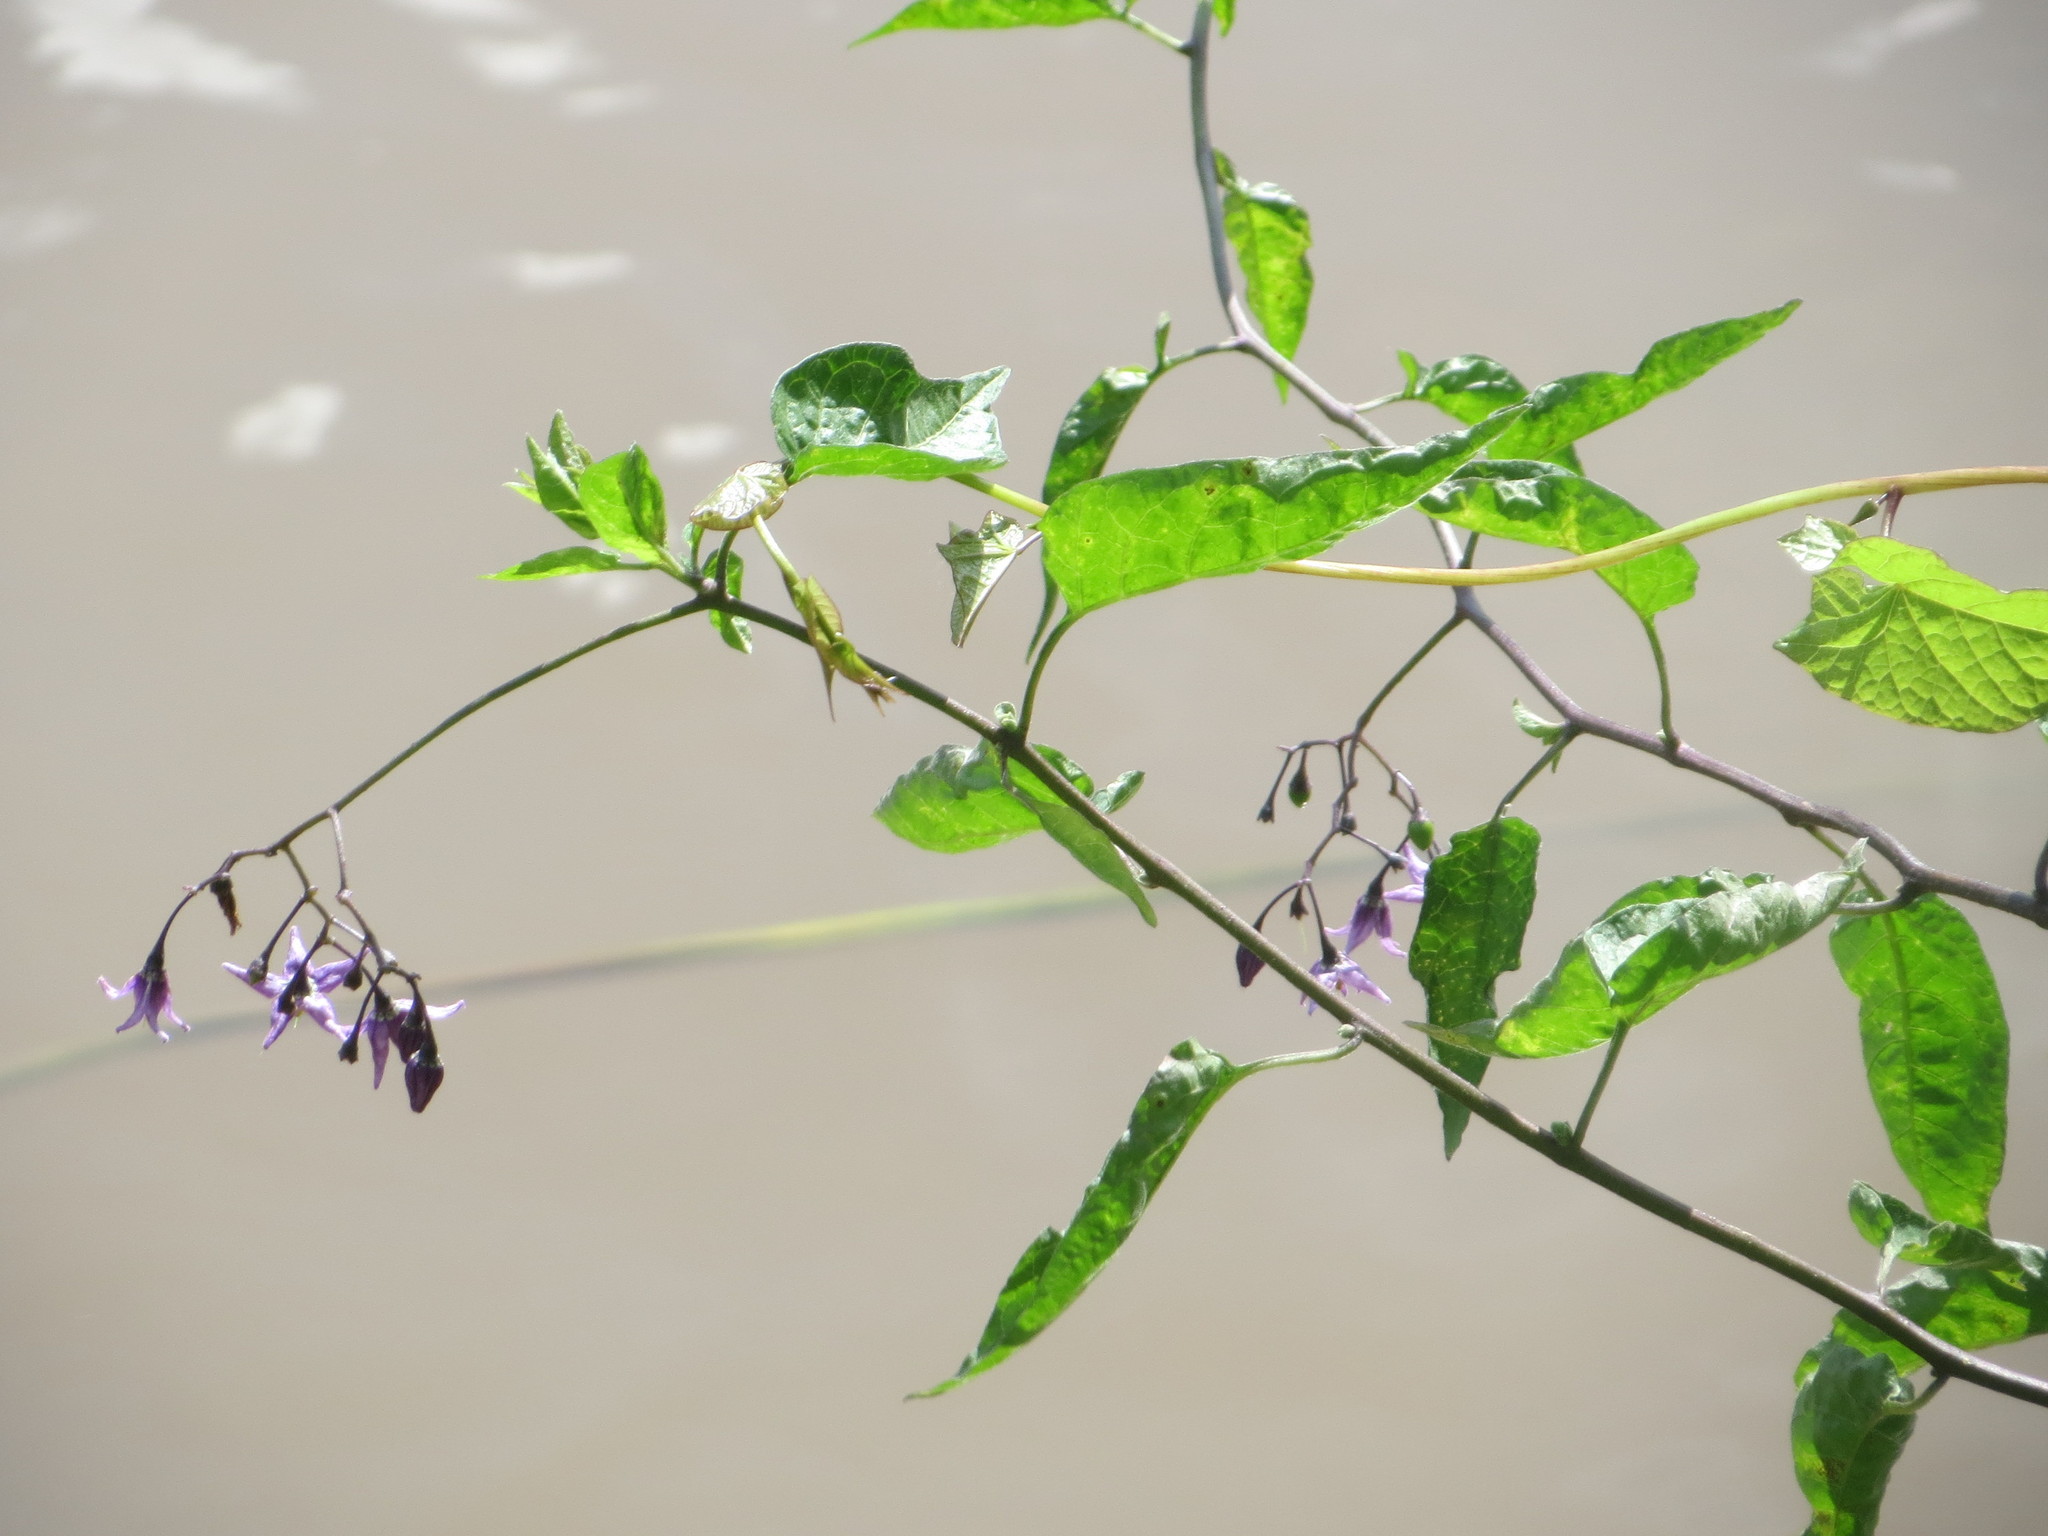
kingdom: Plantae
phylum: Tracheophyta
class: Magnoliopsida
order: Solanales
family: Solanaceae
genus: Solanum
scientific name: Solanum dulcamara
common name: Climbing nightshade
